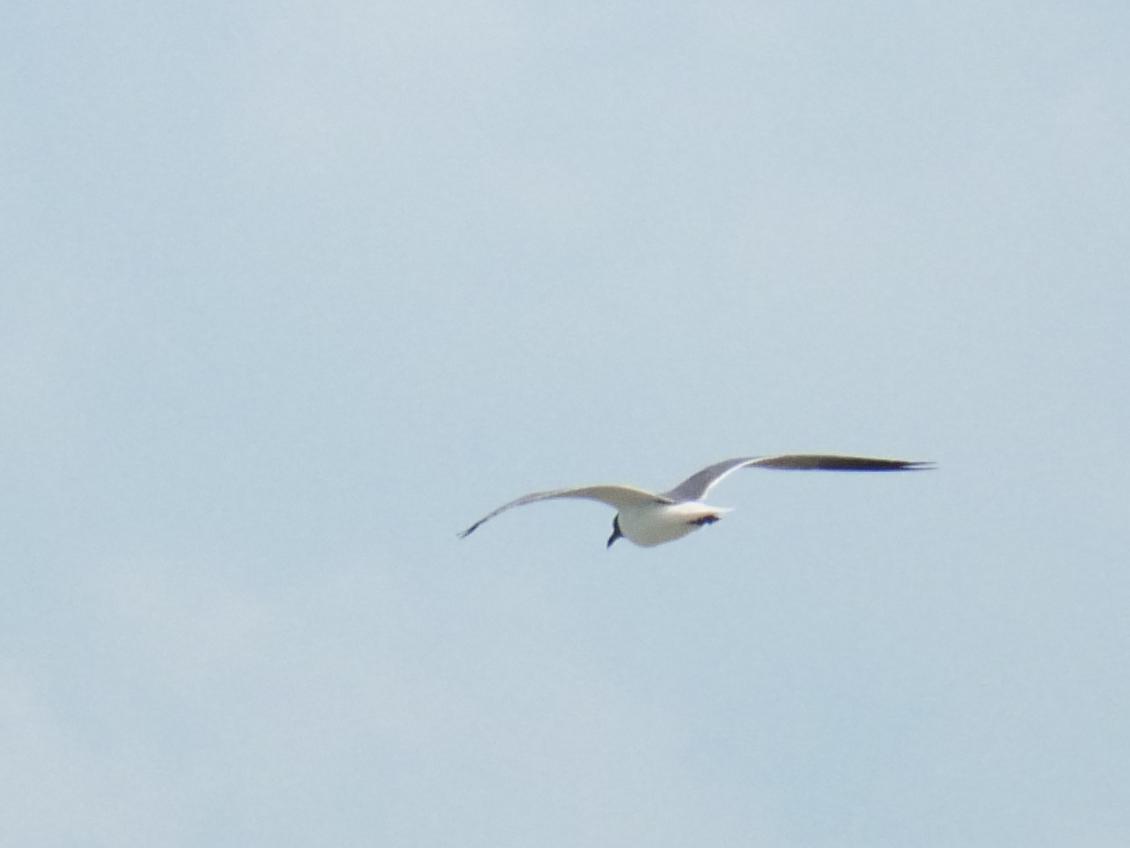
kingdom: Animalia
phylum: Chordata
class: Aves
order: Charadriiformes
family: Laridae
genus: Leucophaeus
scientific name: Leucophaeus atricilla
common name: Laughing gull
